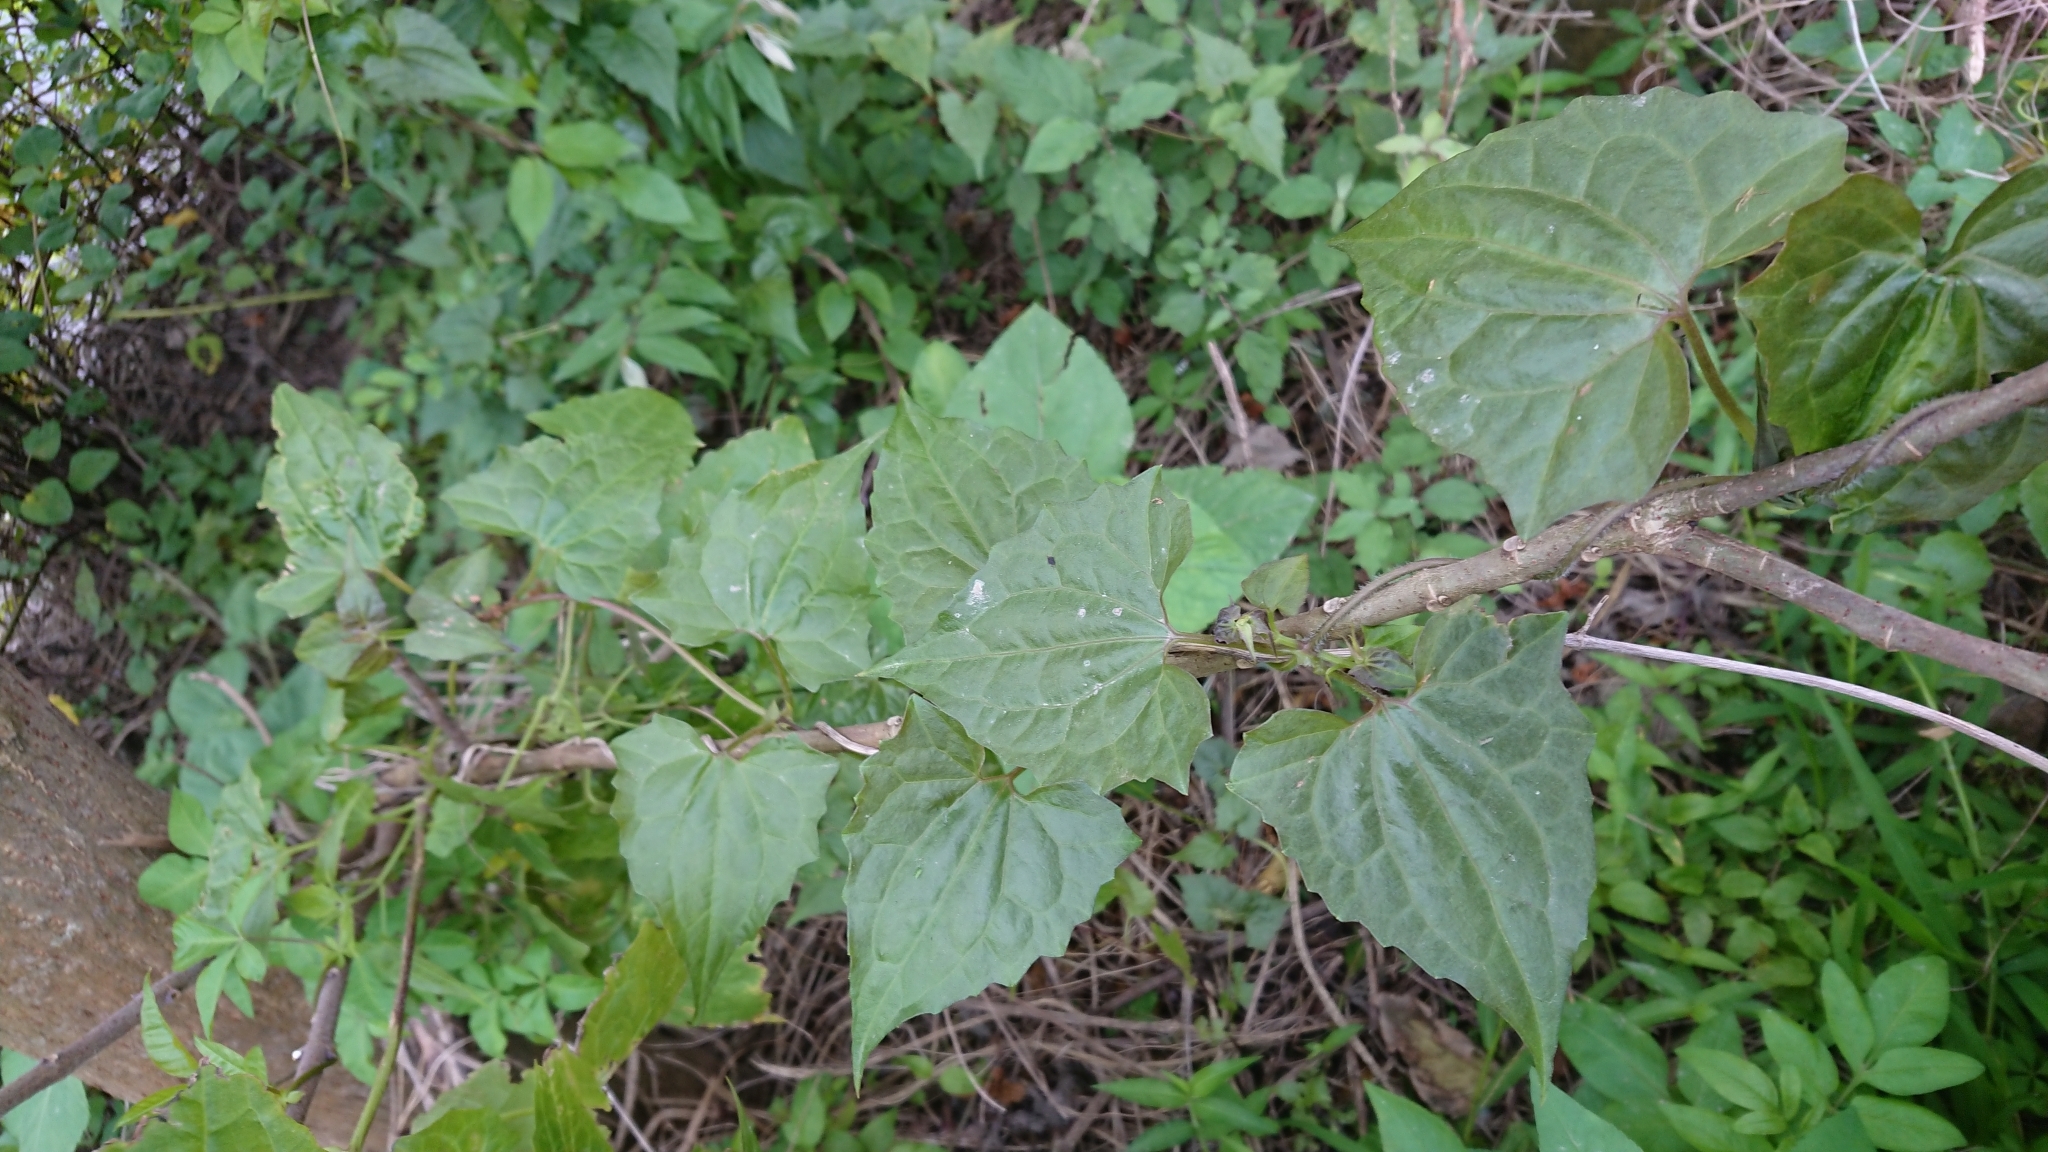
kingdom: Plantae
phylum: Tracheophyta
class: Magnoliopsida
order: Asterales
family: Asteraceae
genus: Mikania
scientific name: Mikania micrantha
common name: Mile-a-minute
